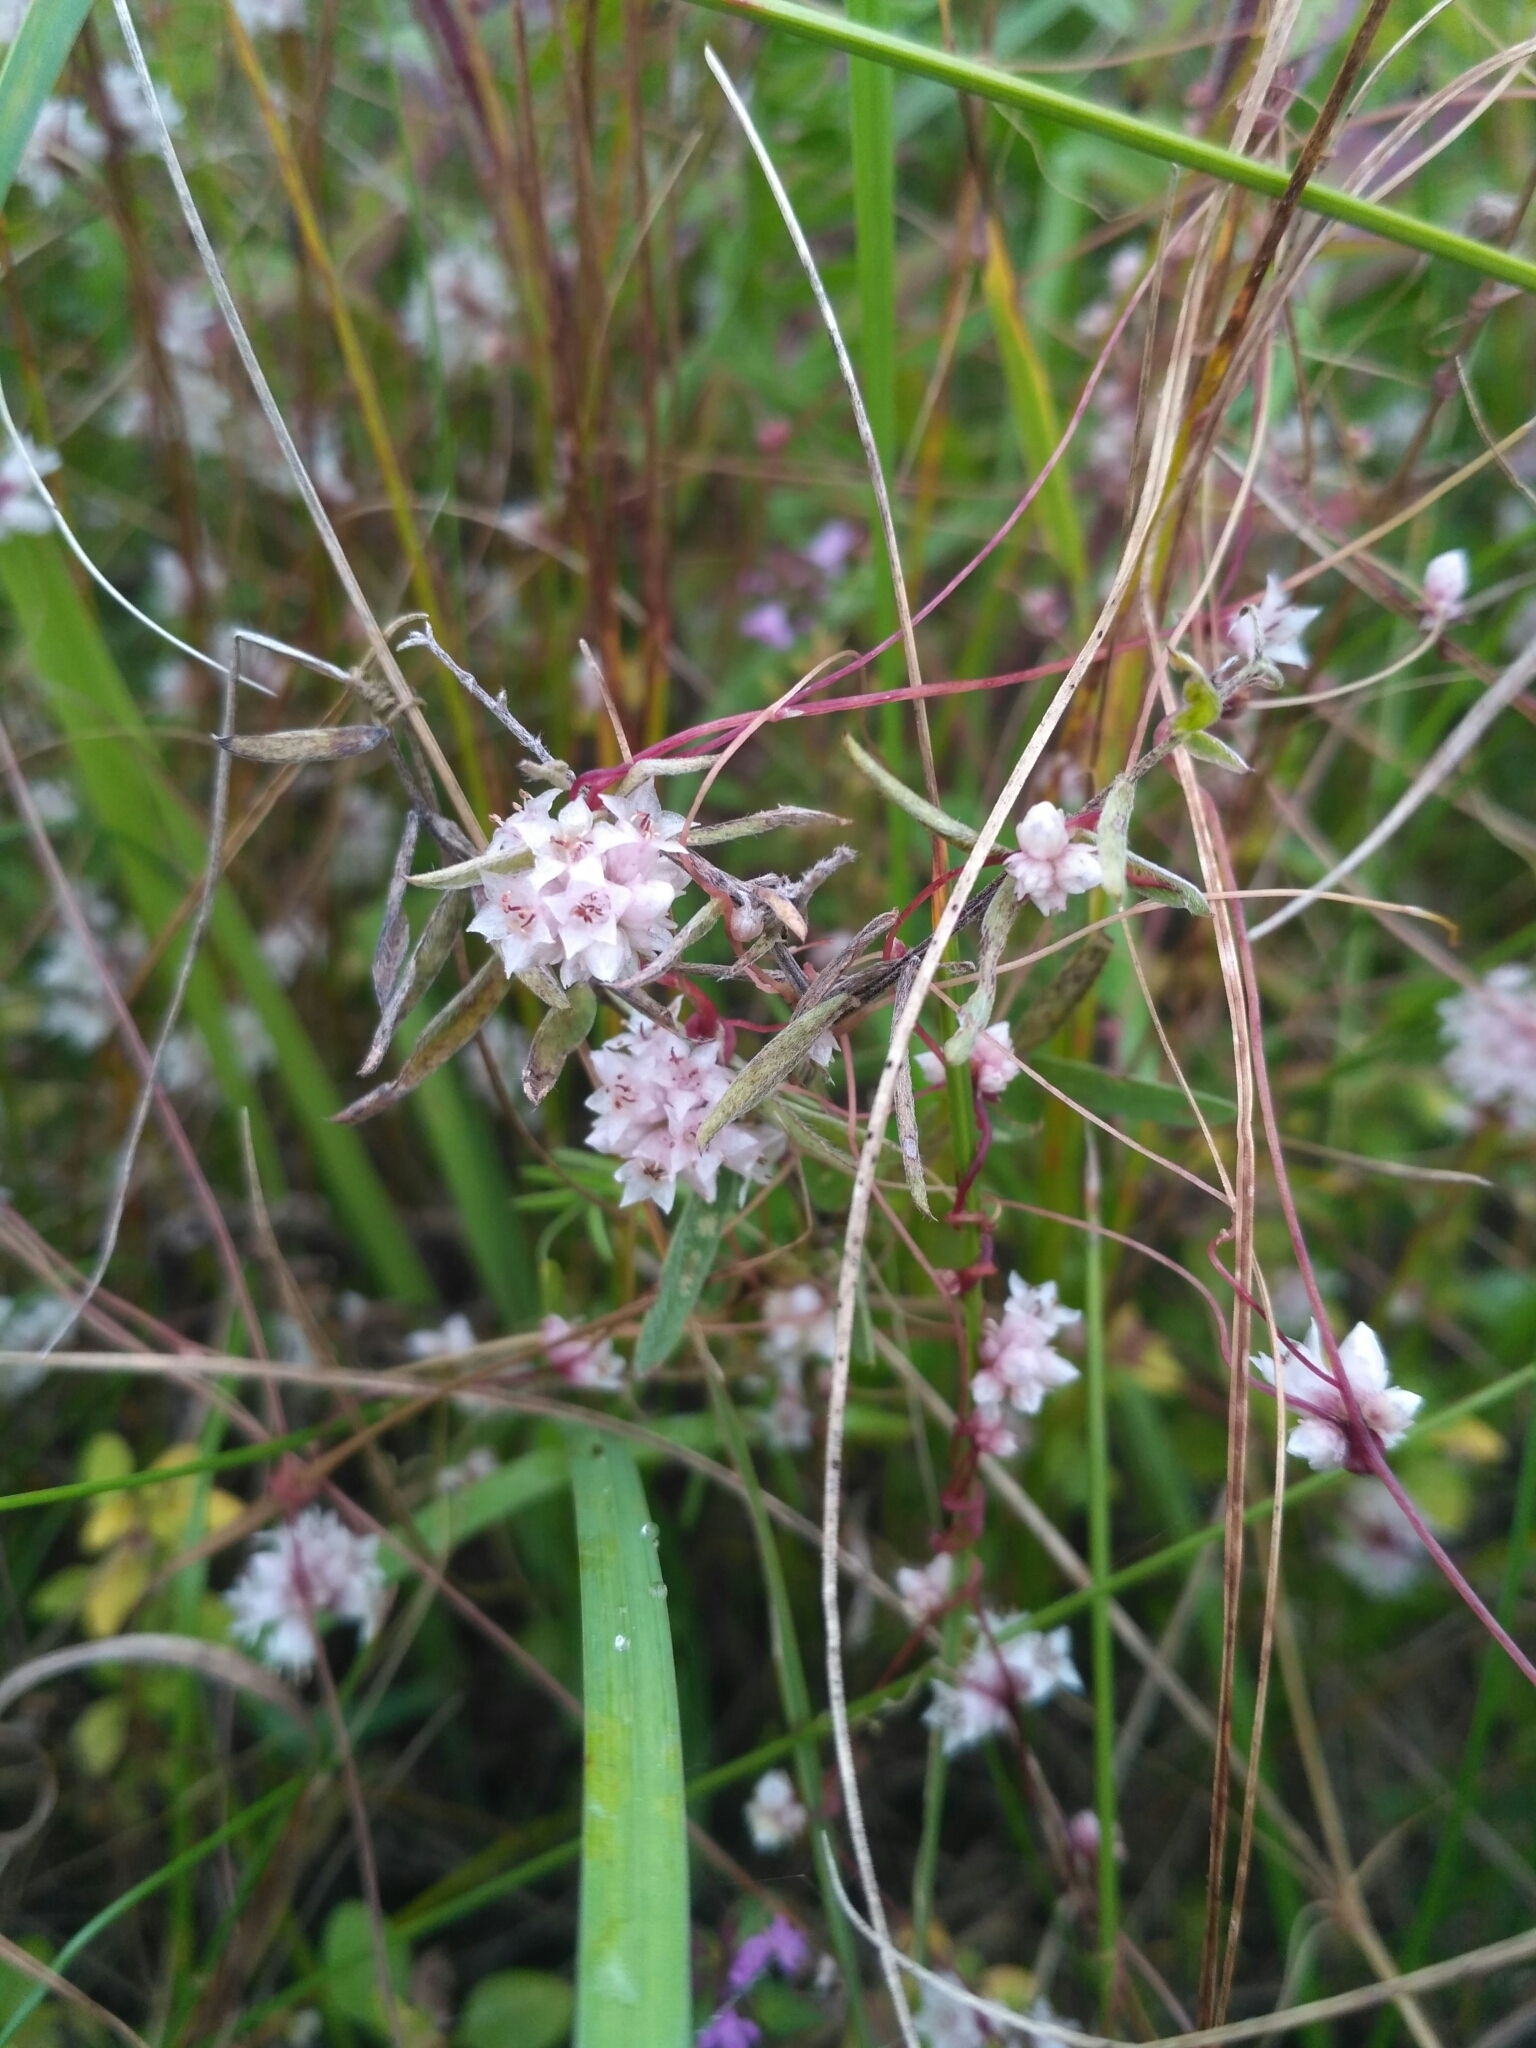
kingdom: Plantae
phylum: Tracheophyta
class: Magnoliopsida
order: Solanales
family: Convolvulaceae
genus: Cuscuta
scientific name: Cuscuta epithymum
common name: Clover dodder
